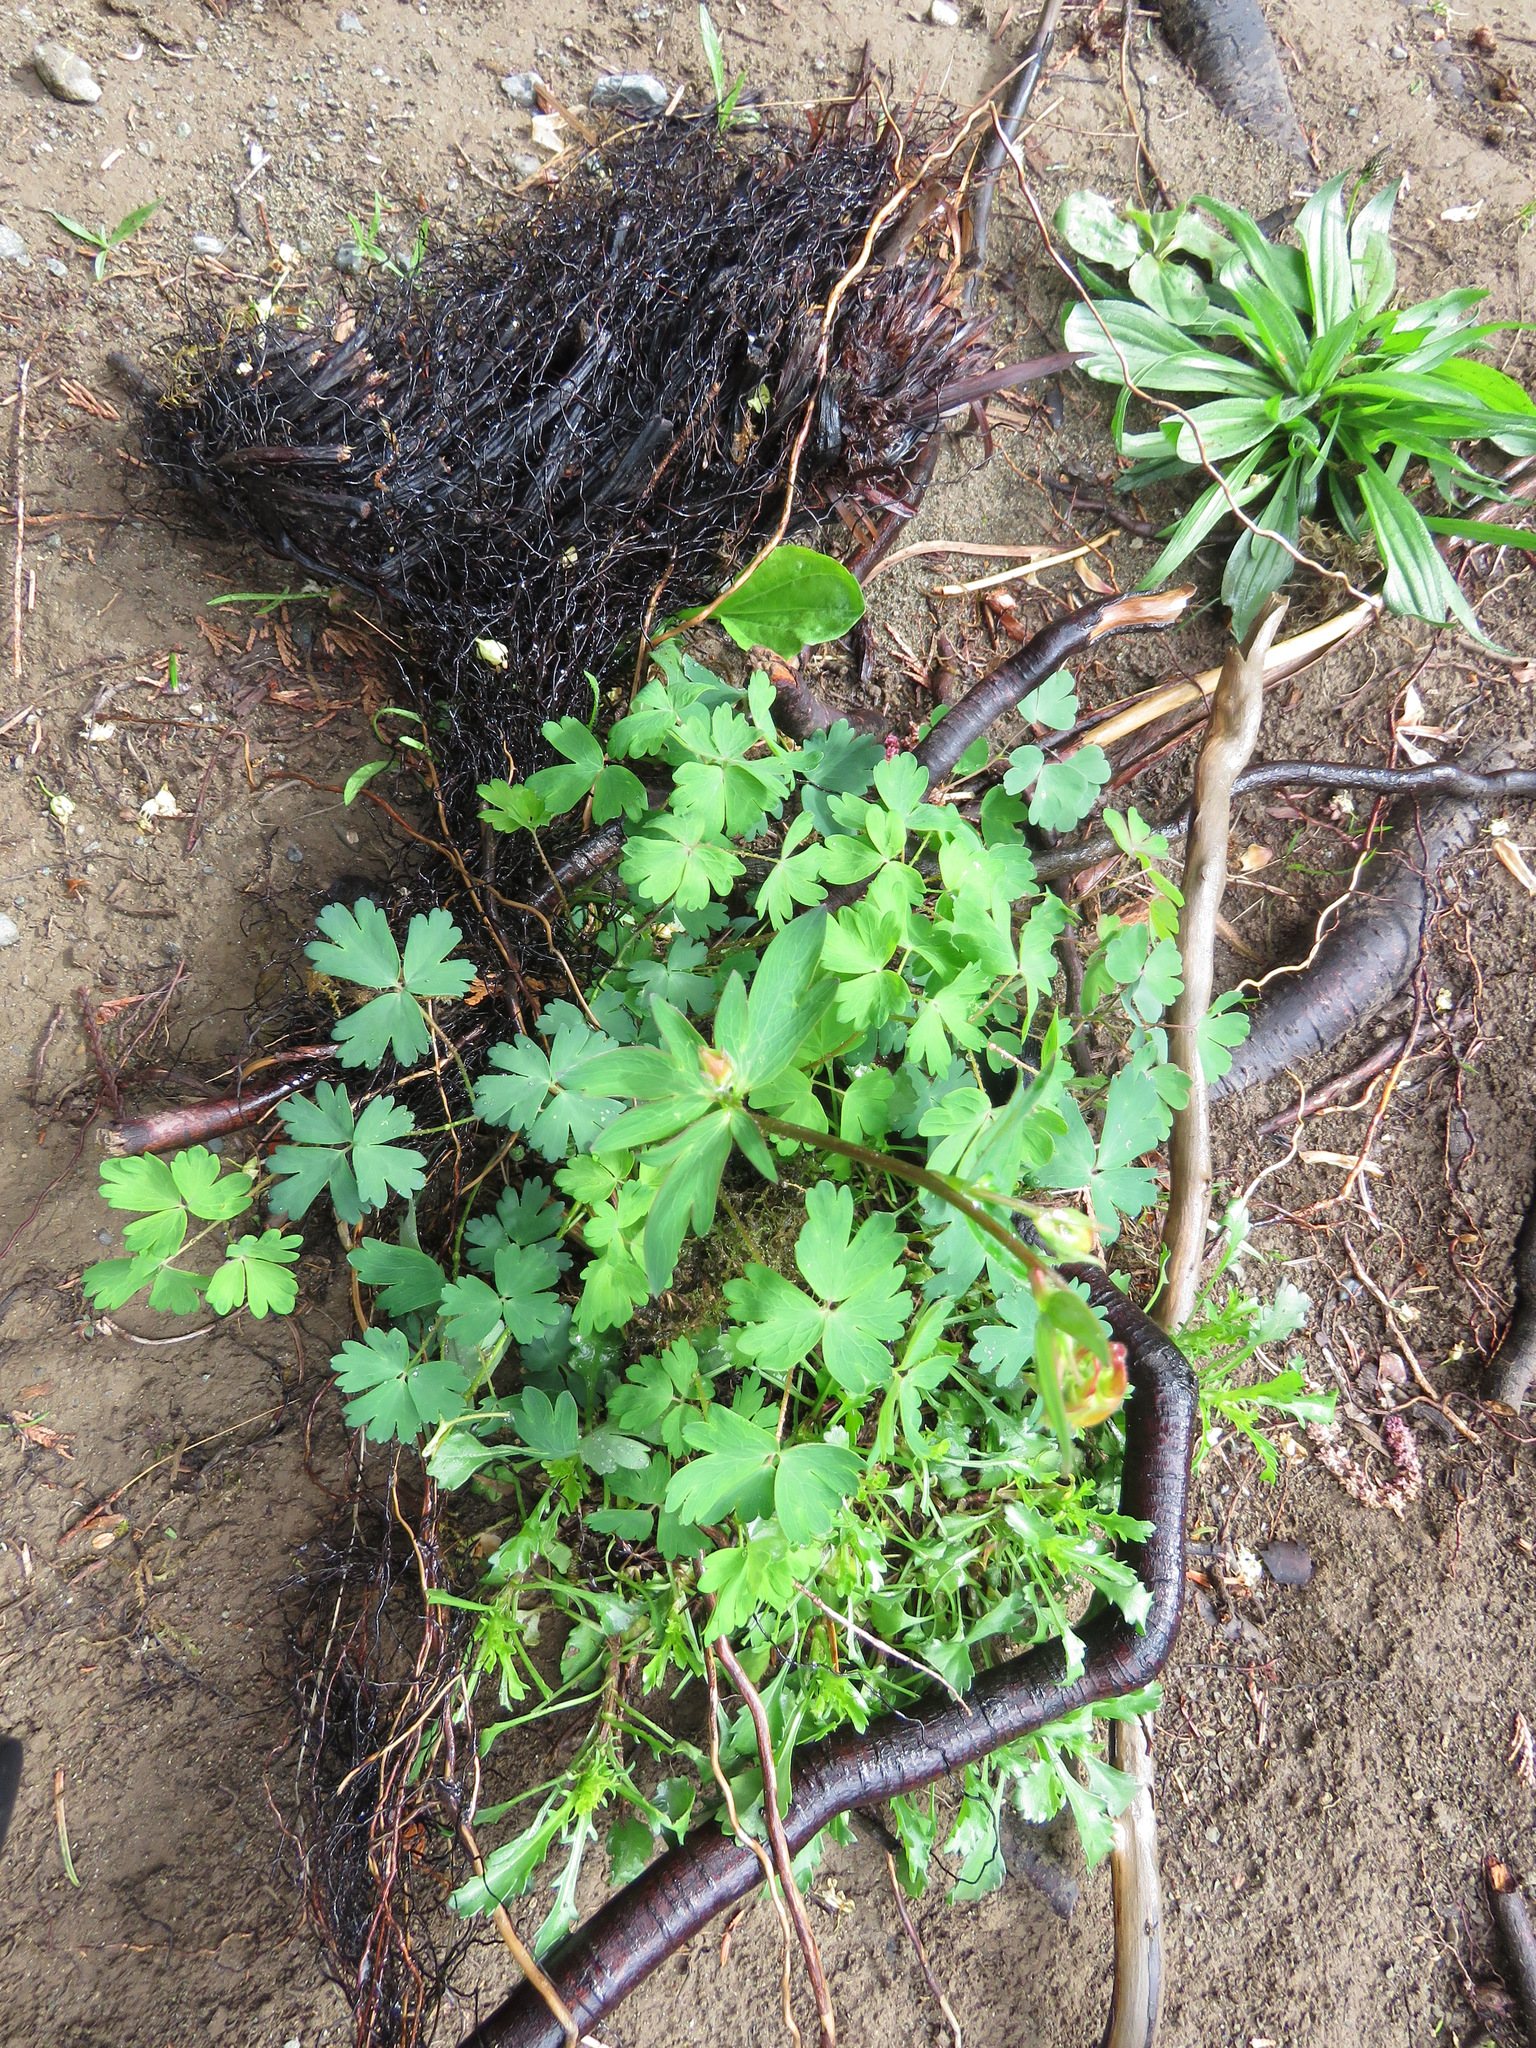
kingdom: Plantae
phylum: Tracheophyta
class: Magnoliopsida
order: Ranunculales
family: Ranunculaceae
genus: Aquilegia
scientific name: Aquilegia formosa
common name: Sitka columbine
